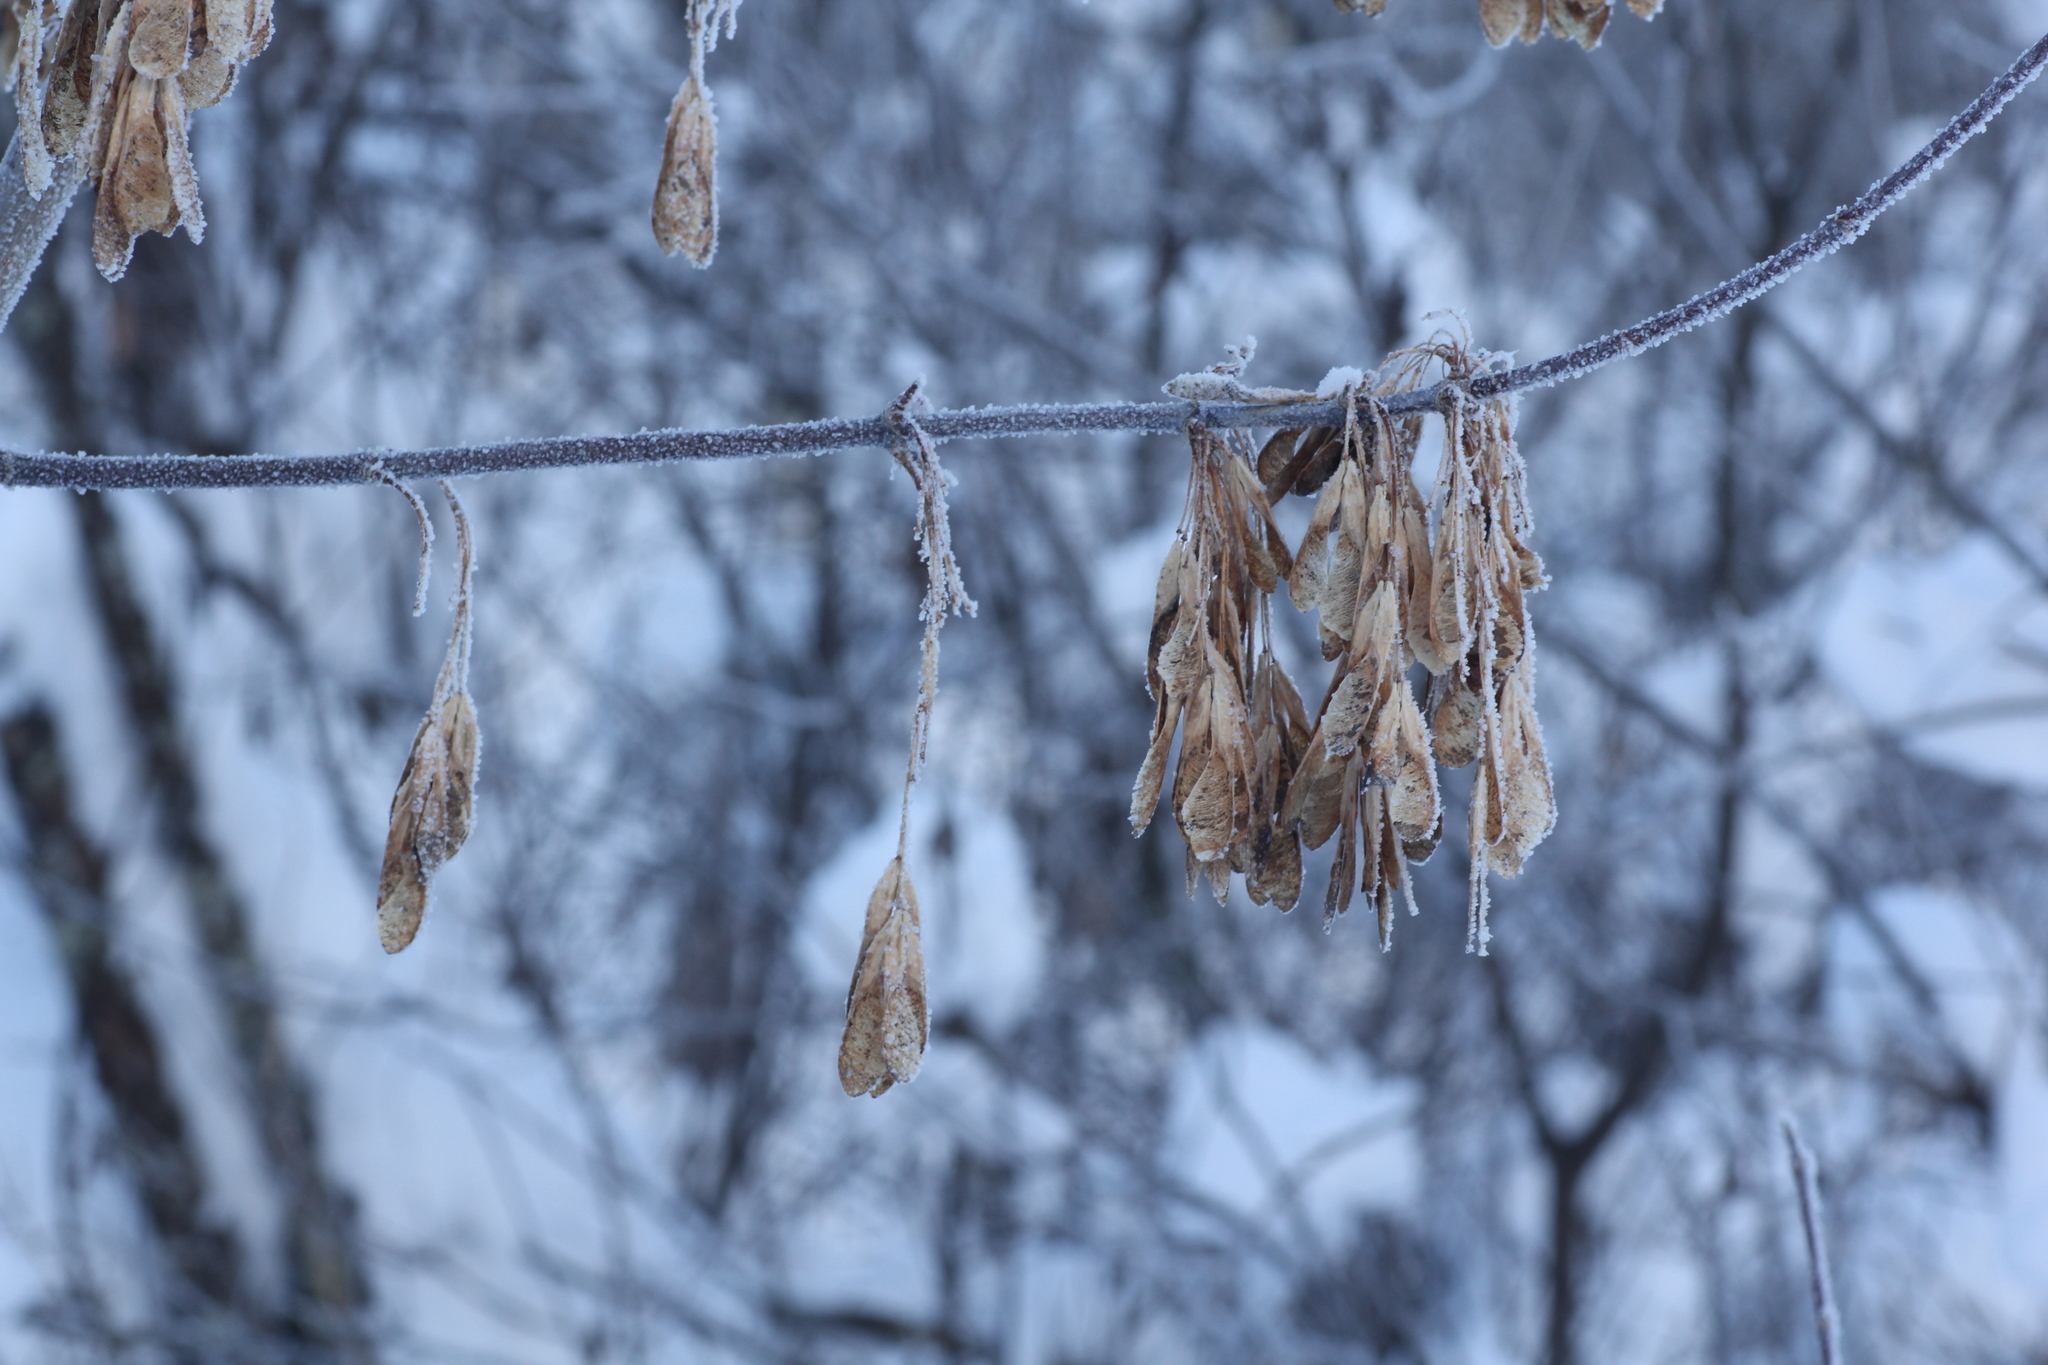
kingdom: Plantae
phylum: Tracheophyta
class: Magnoliopsida
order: Sapindales
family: Sapindaceae
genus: Acer
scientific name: Acer negundo
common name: Ashleaf maple
